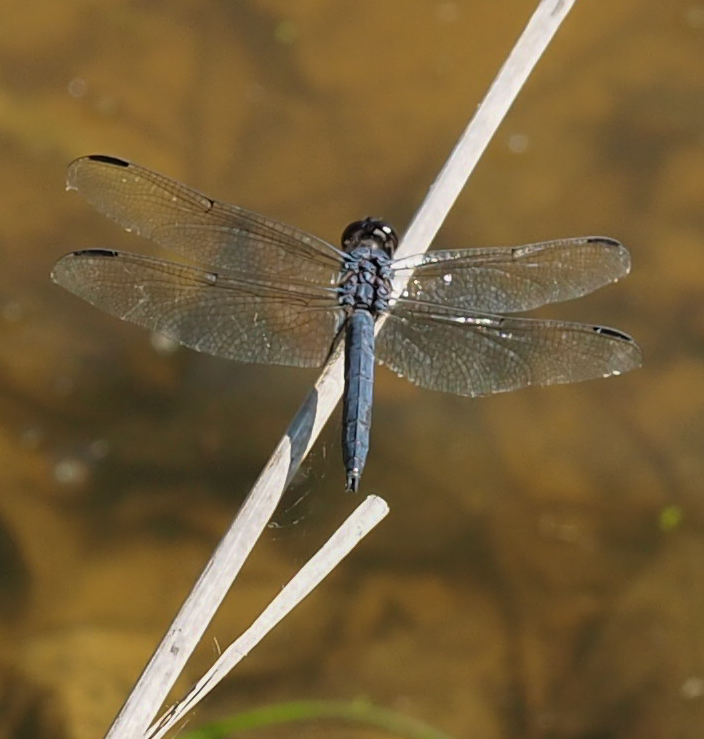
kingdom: Animalia
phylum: Arthropoda
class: Insecta
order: Odonata
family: Libellulidae
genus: Libellula
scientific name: Libellula incesta
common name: Slaty skimmer
